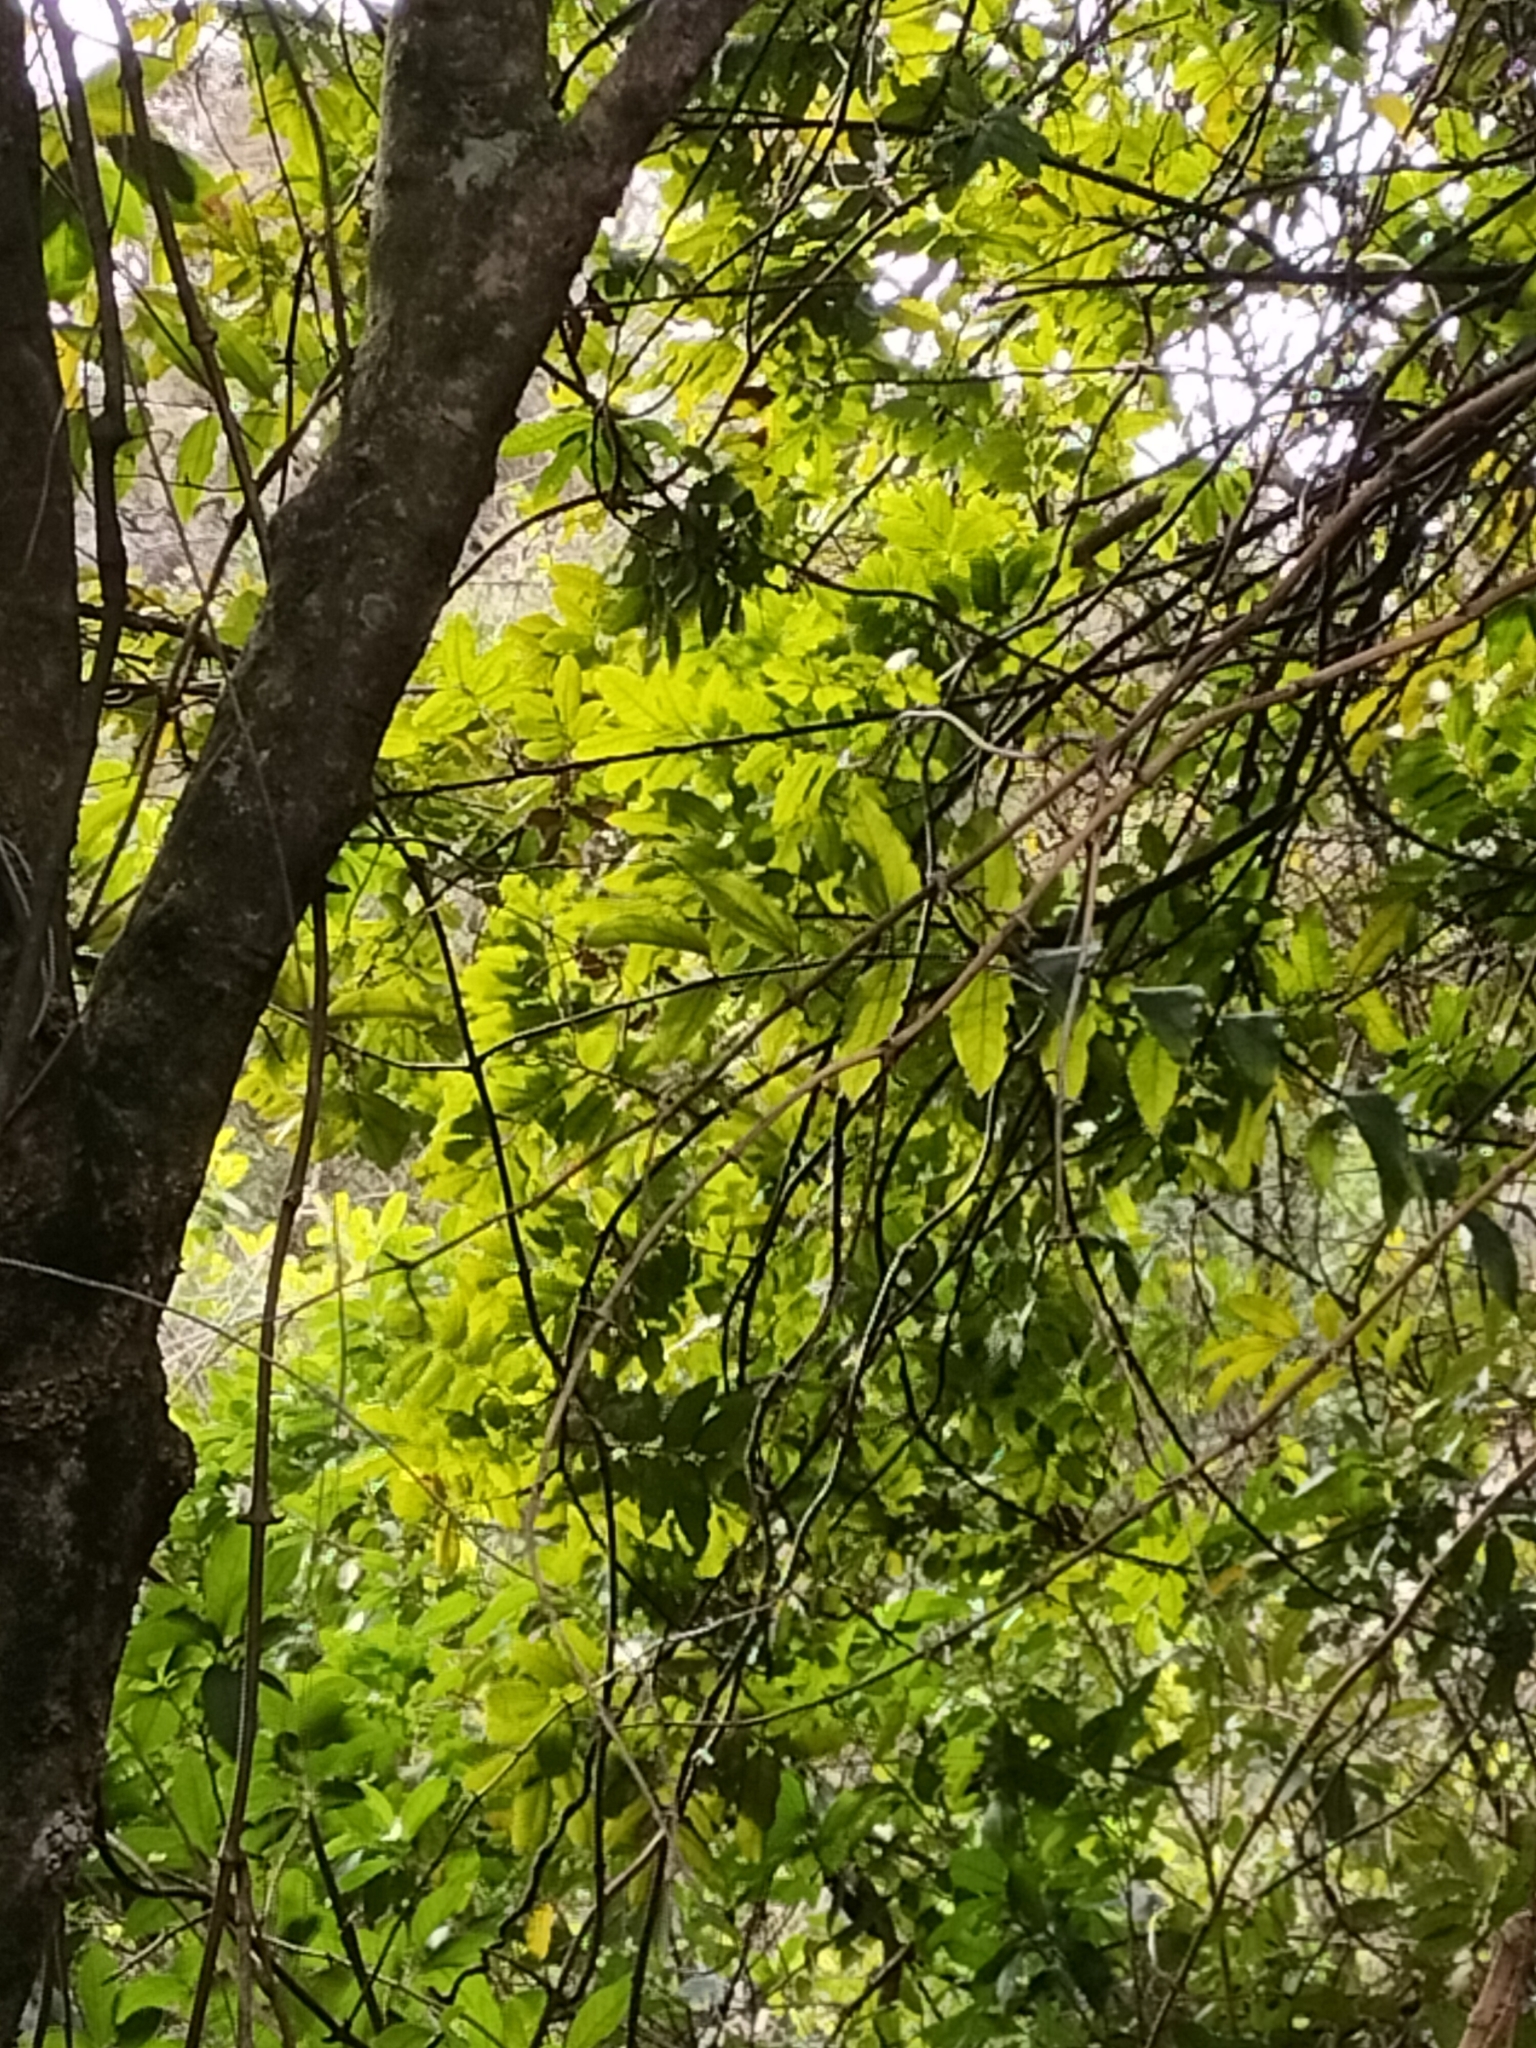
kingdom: Plantae
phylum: Tracheophyta
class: Liliopsida
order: Liliales
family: Ripogonaceae
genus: Ripogonum
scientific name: Ripogonum scandens
